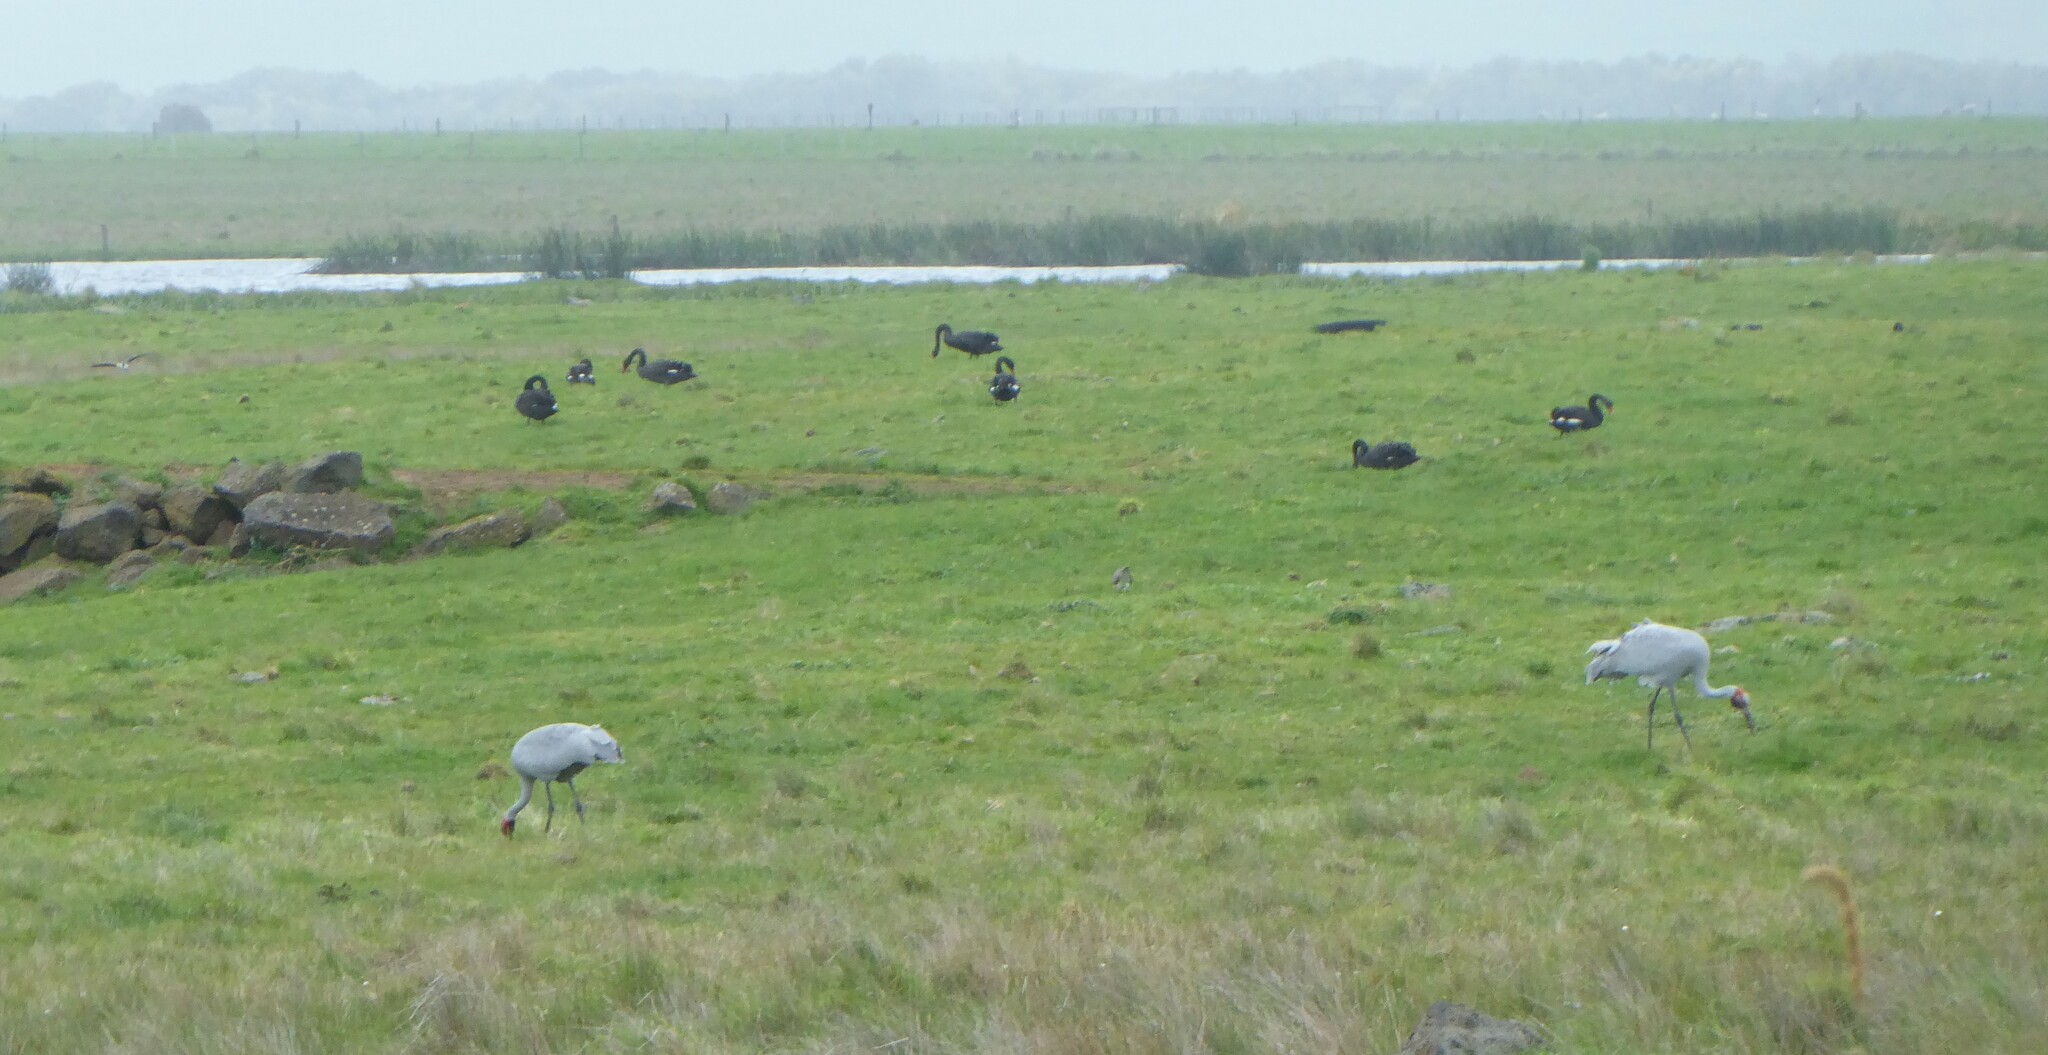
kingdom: Animalia
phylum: Chordata
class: Aves
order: Gruiformes
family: Gruidae
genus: Grus
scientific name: Grus rubicunda
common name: Brolga
